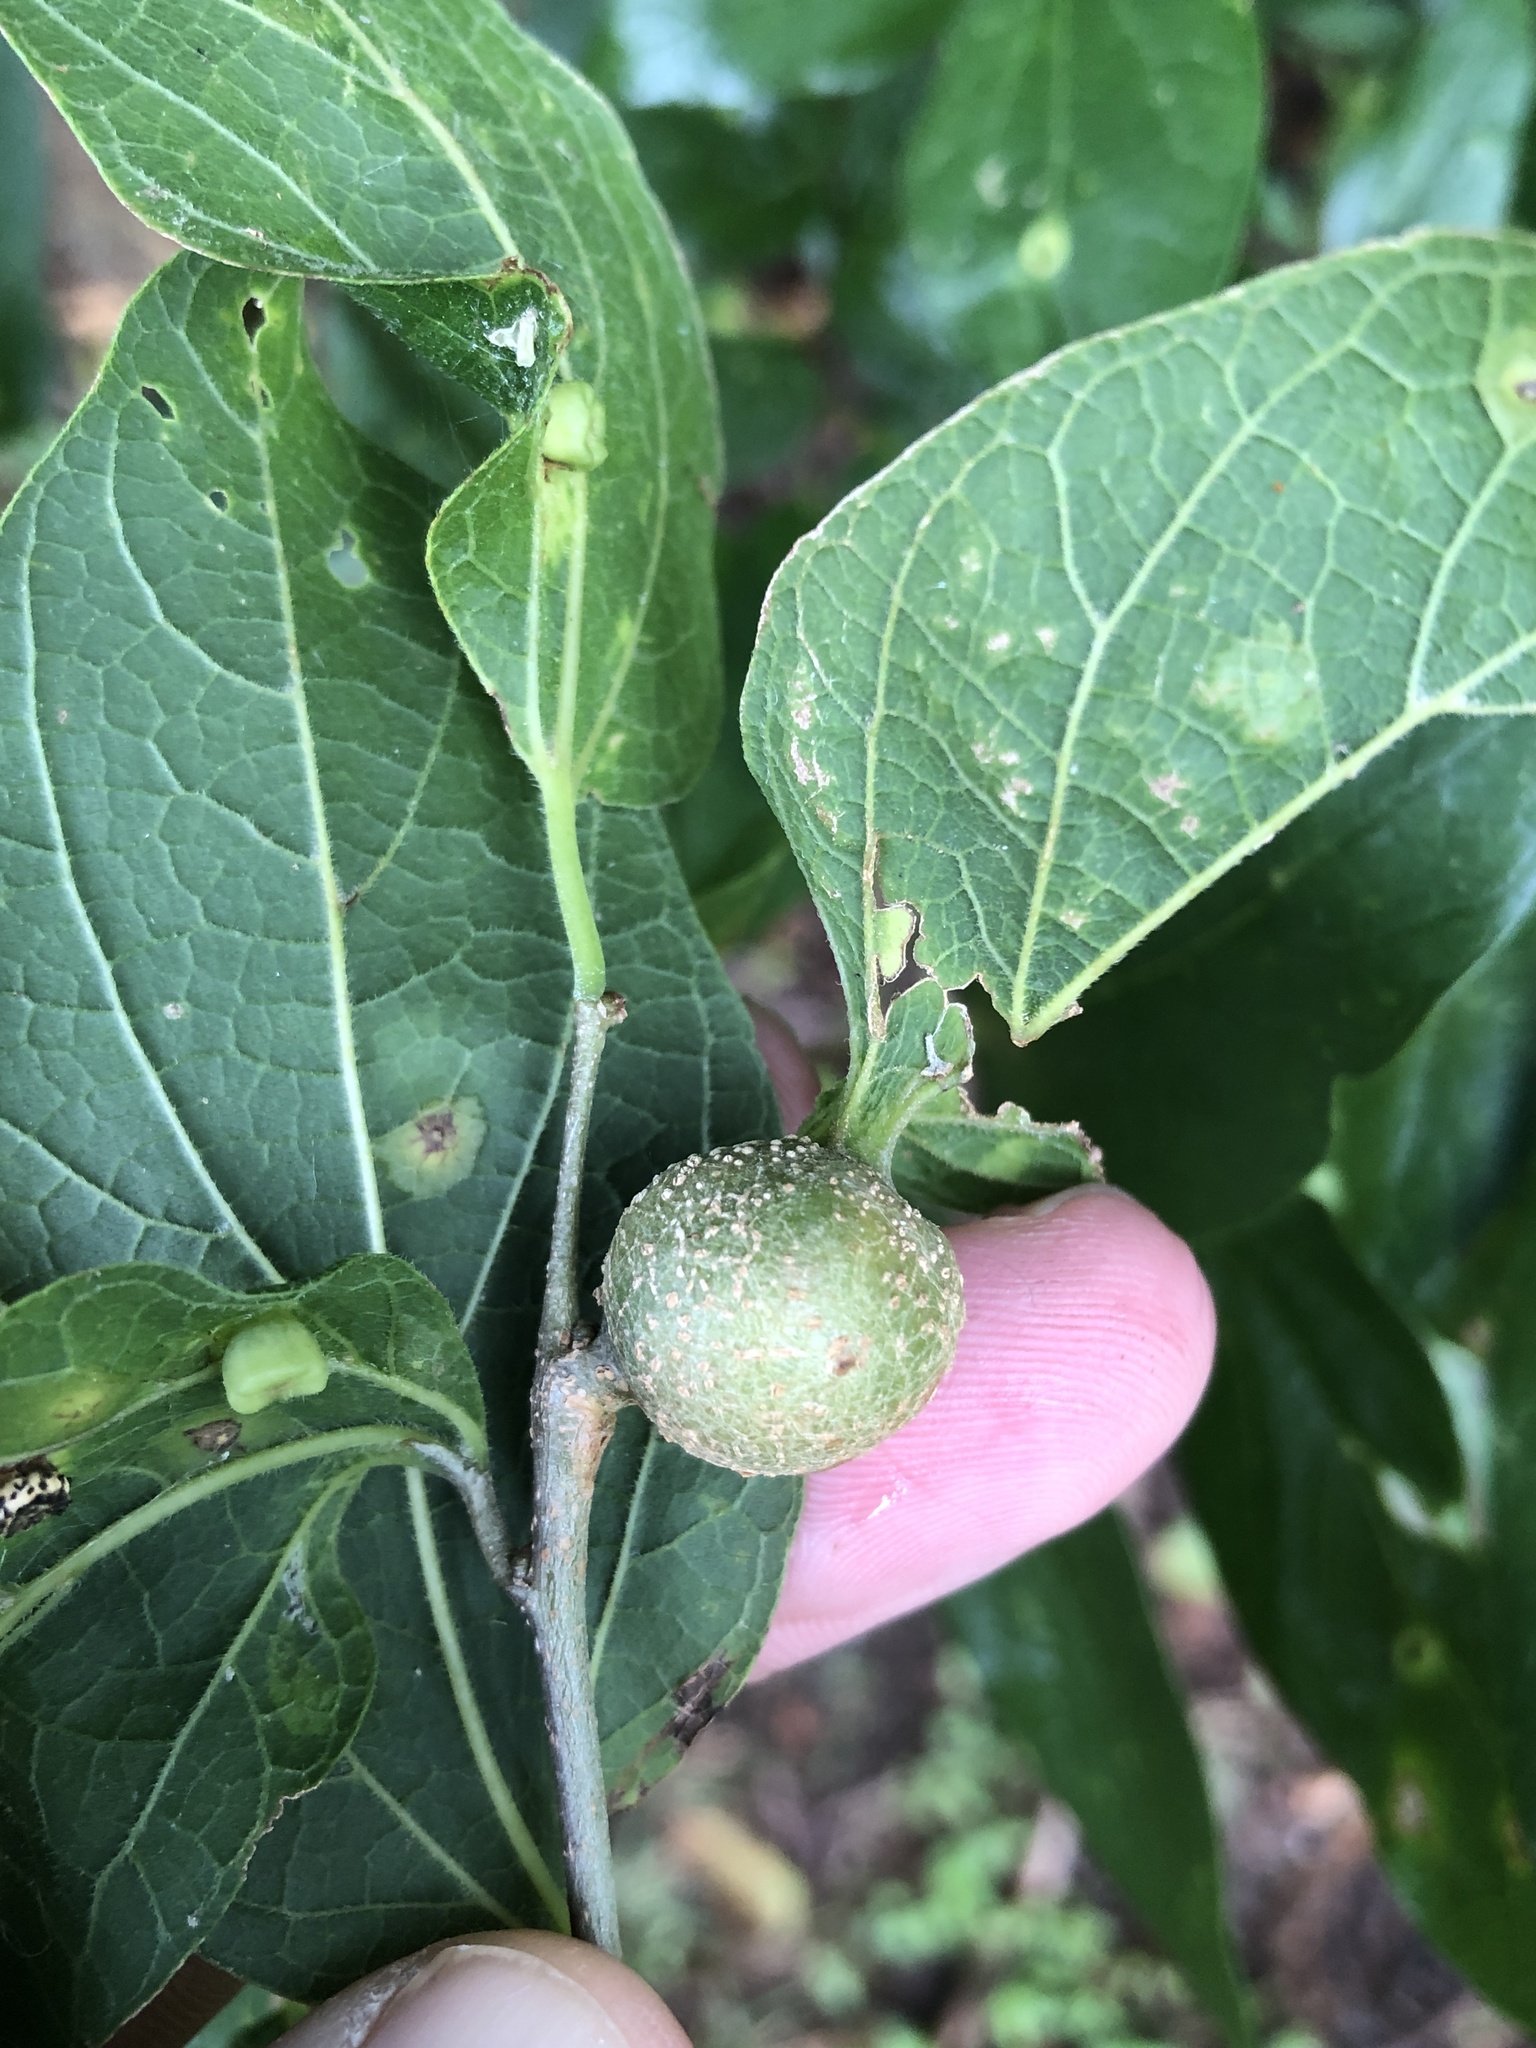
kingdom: Animalia
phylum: Arthropoda
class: Insecta
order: Hemiptera
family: Aphalaridae
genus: Pachypsylla
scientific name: Pachypsylla venusta
